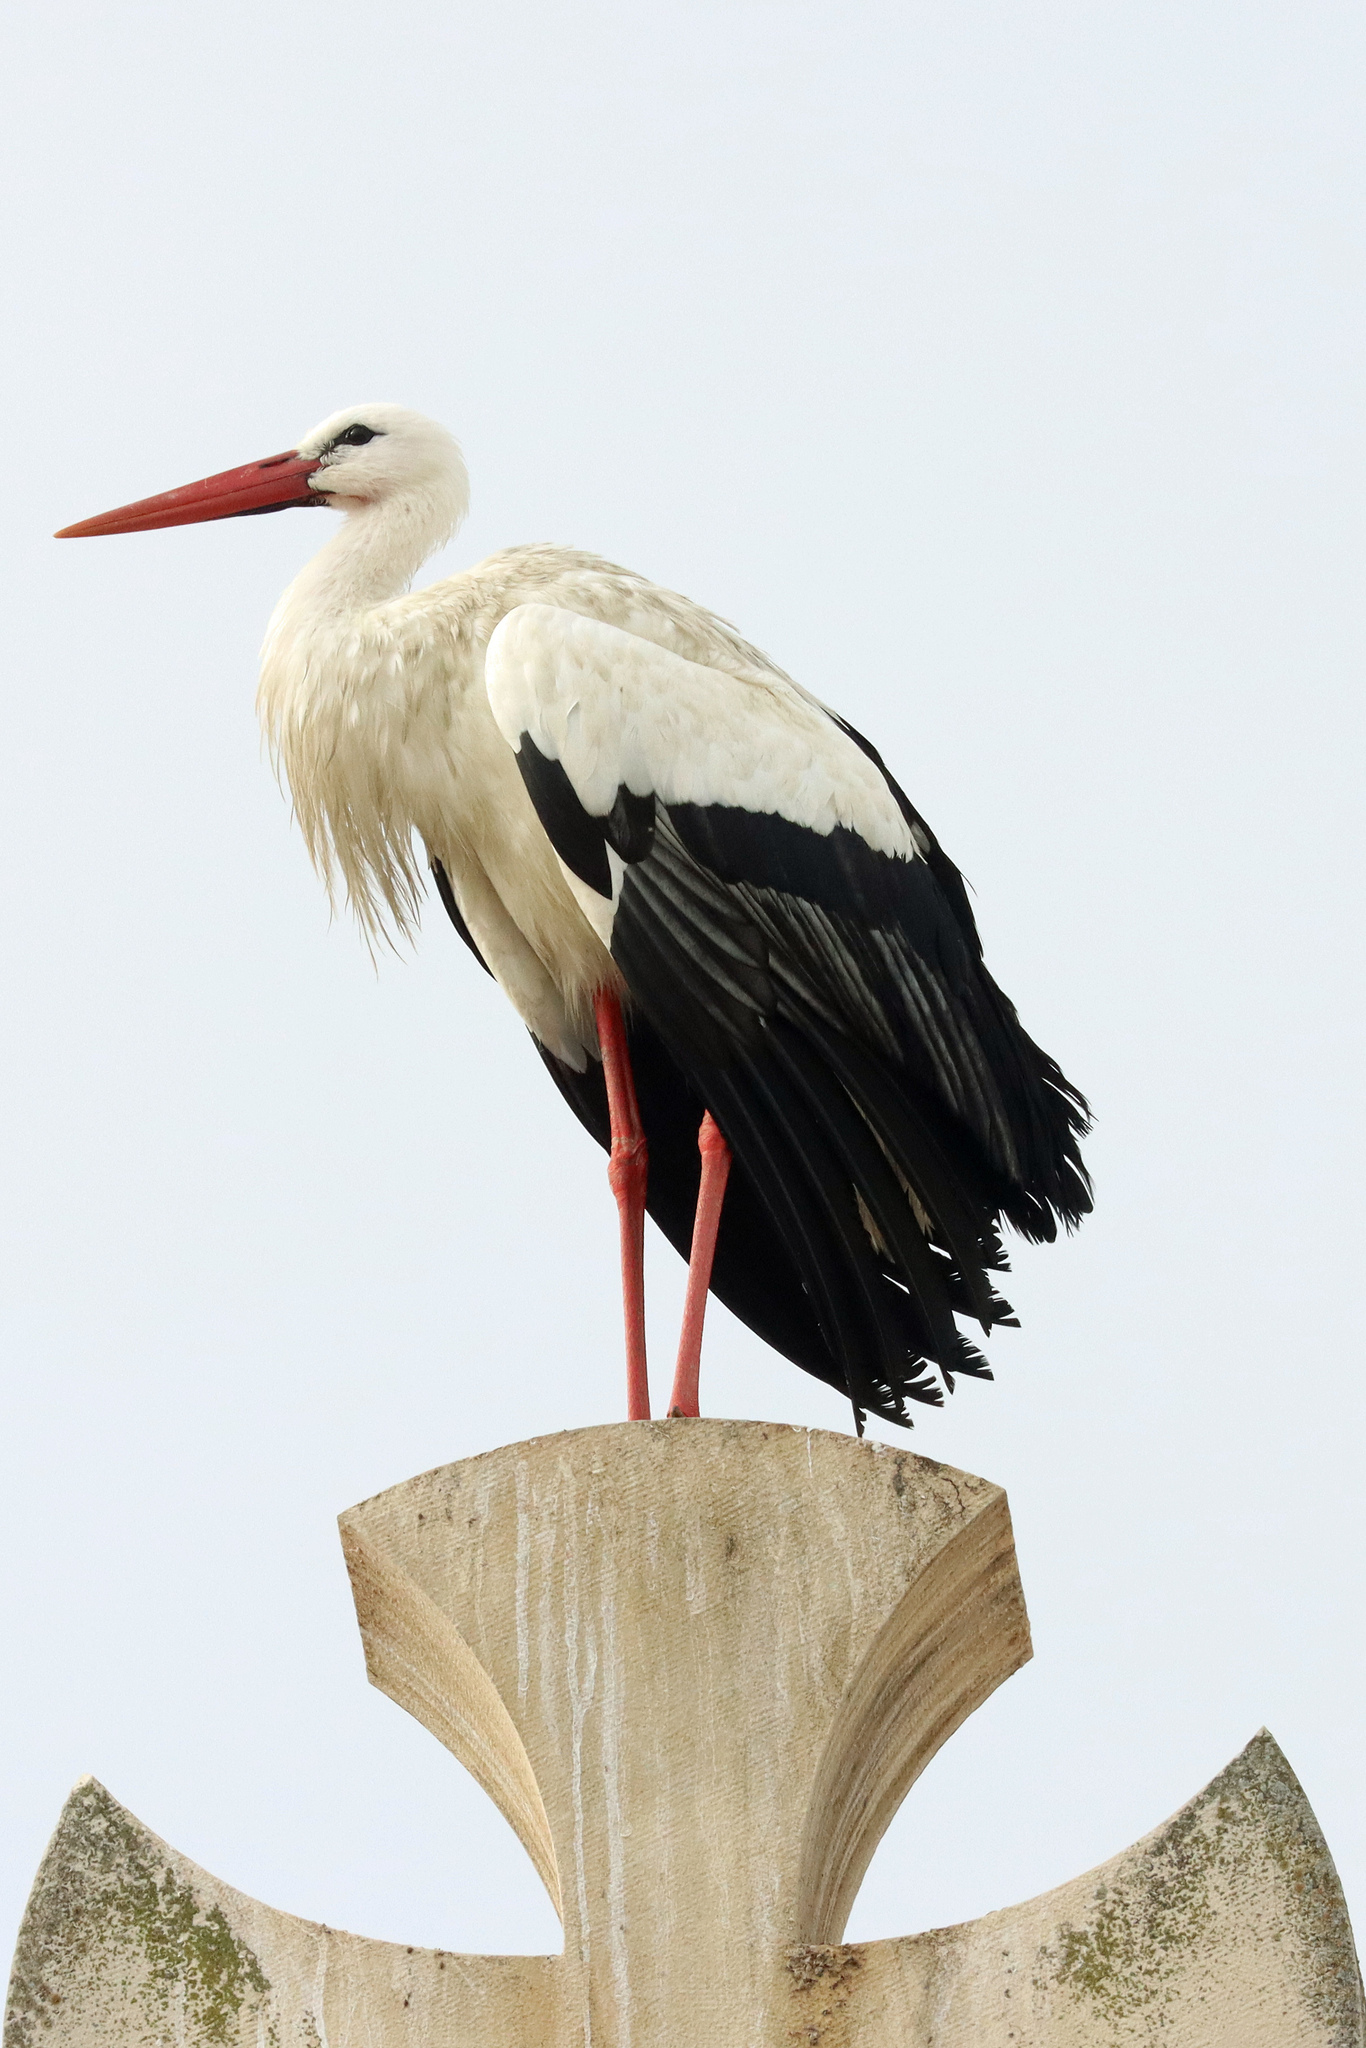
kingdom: Animalia
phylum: Chordata
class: Aves
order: Ciconiiformes
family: Ciconiidae
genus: Ciconia
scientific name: Ciconia ciconia
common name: White stork
